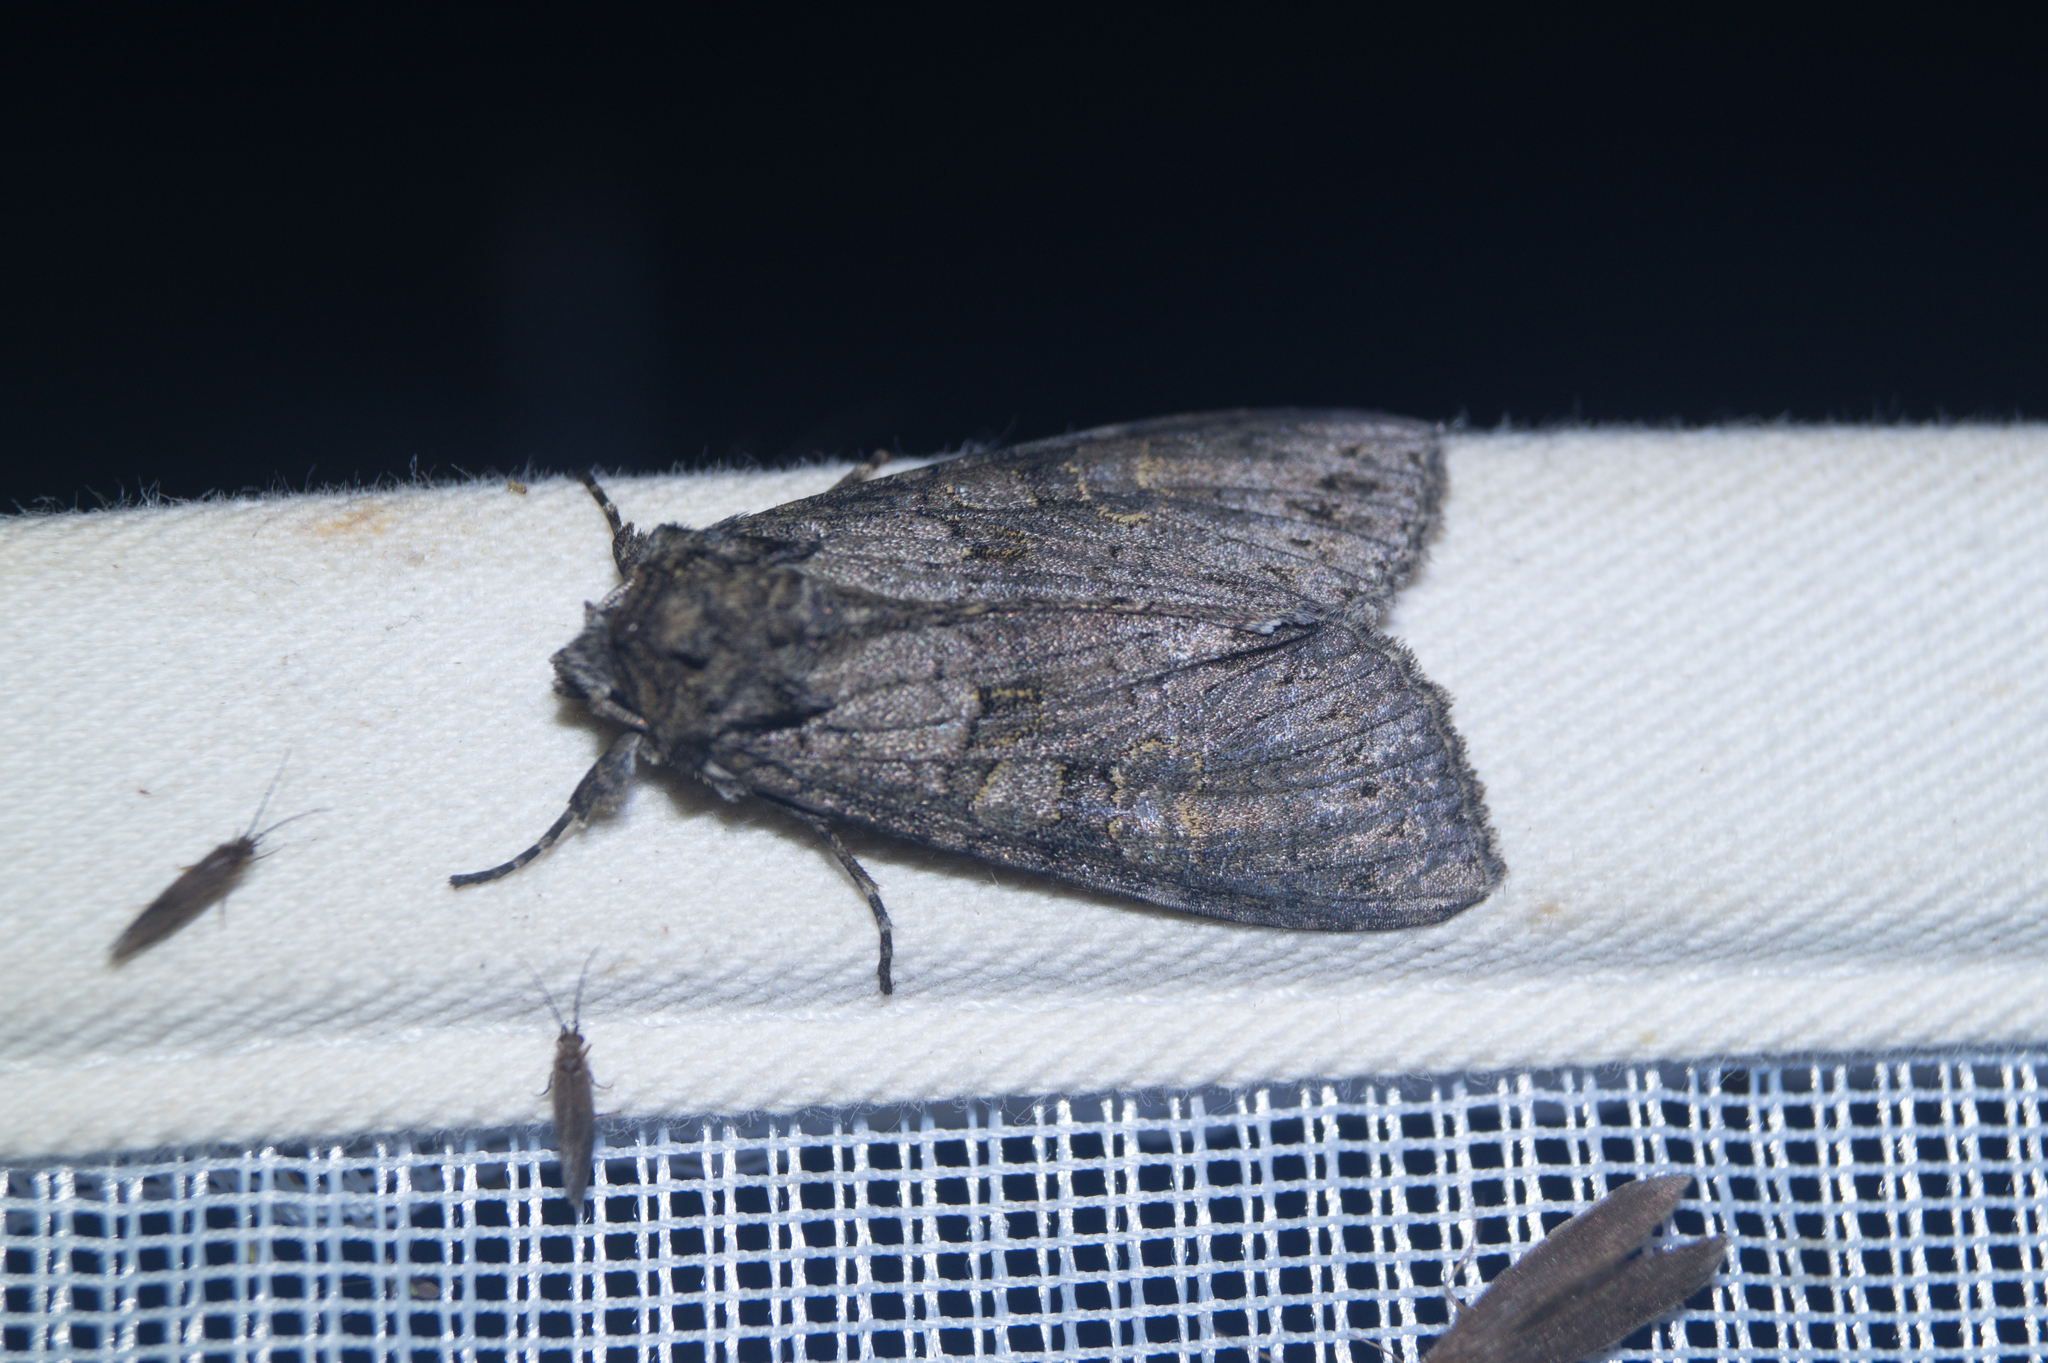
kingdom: Animalia
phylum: Arthropoda
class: Insecta
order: Lepidoptera
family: Noctuidae
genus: Polia
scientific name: Polia nebulosa
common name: Grey arches
